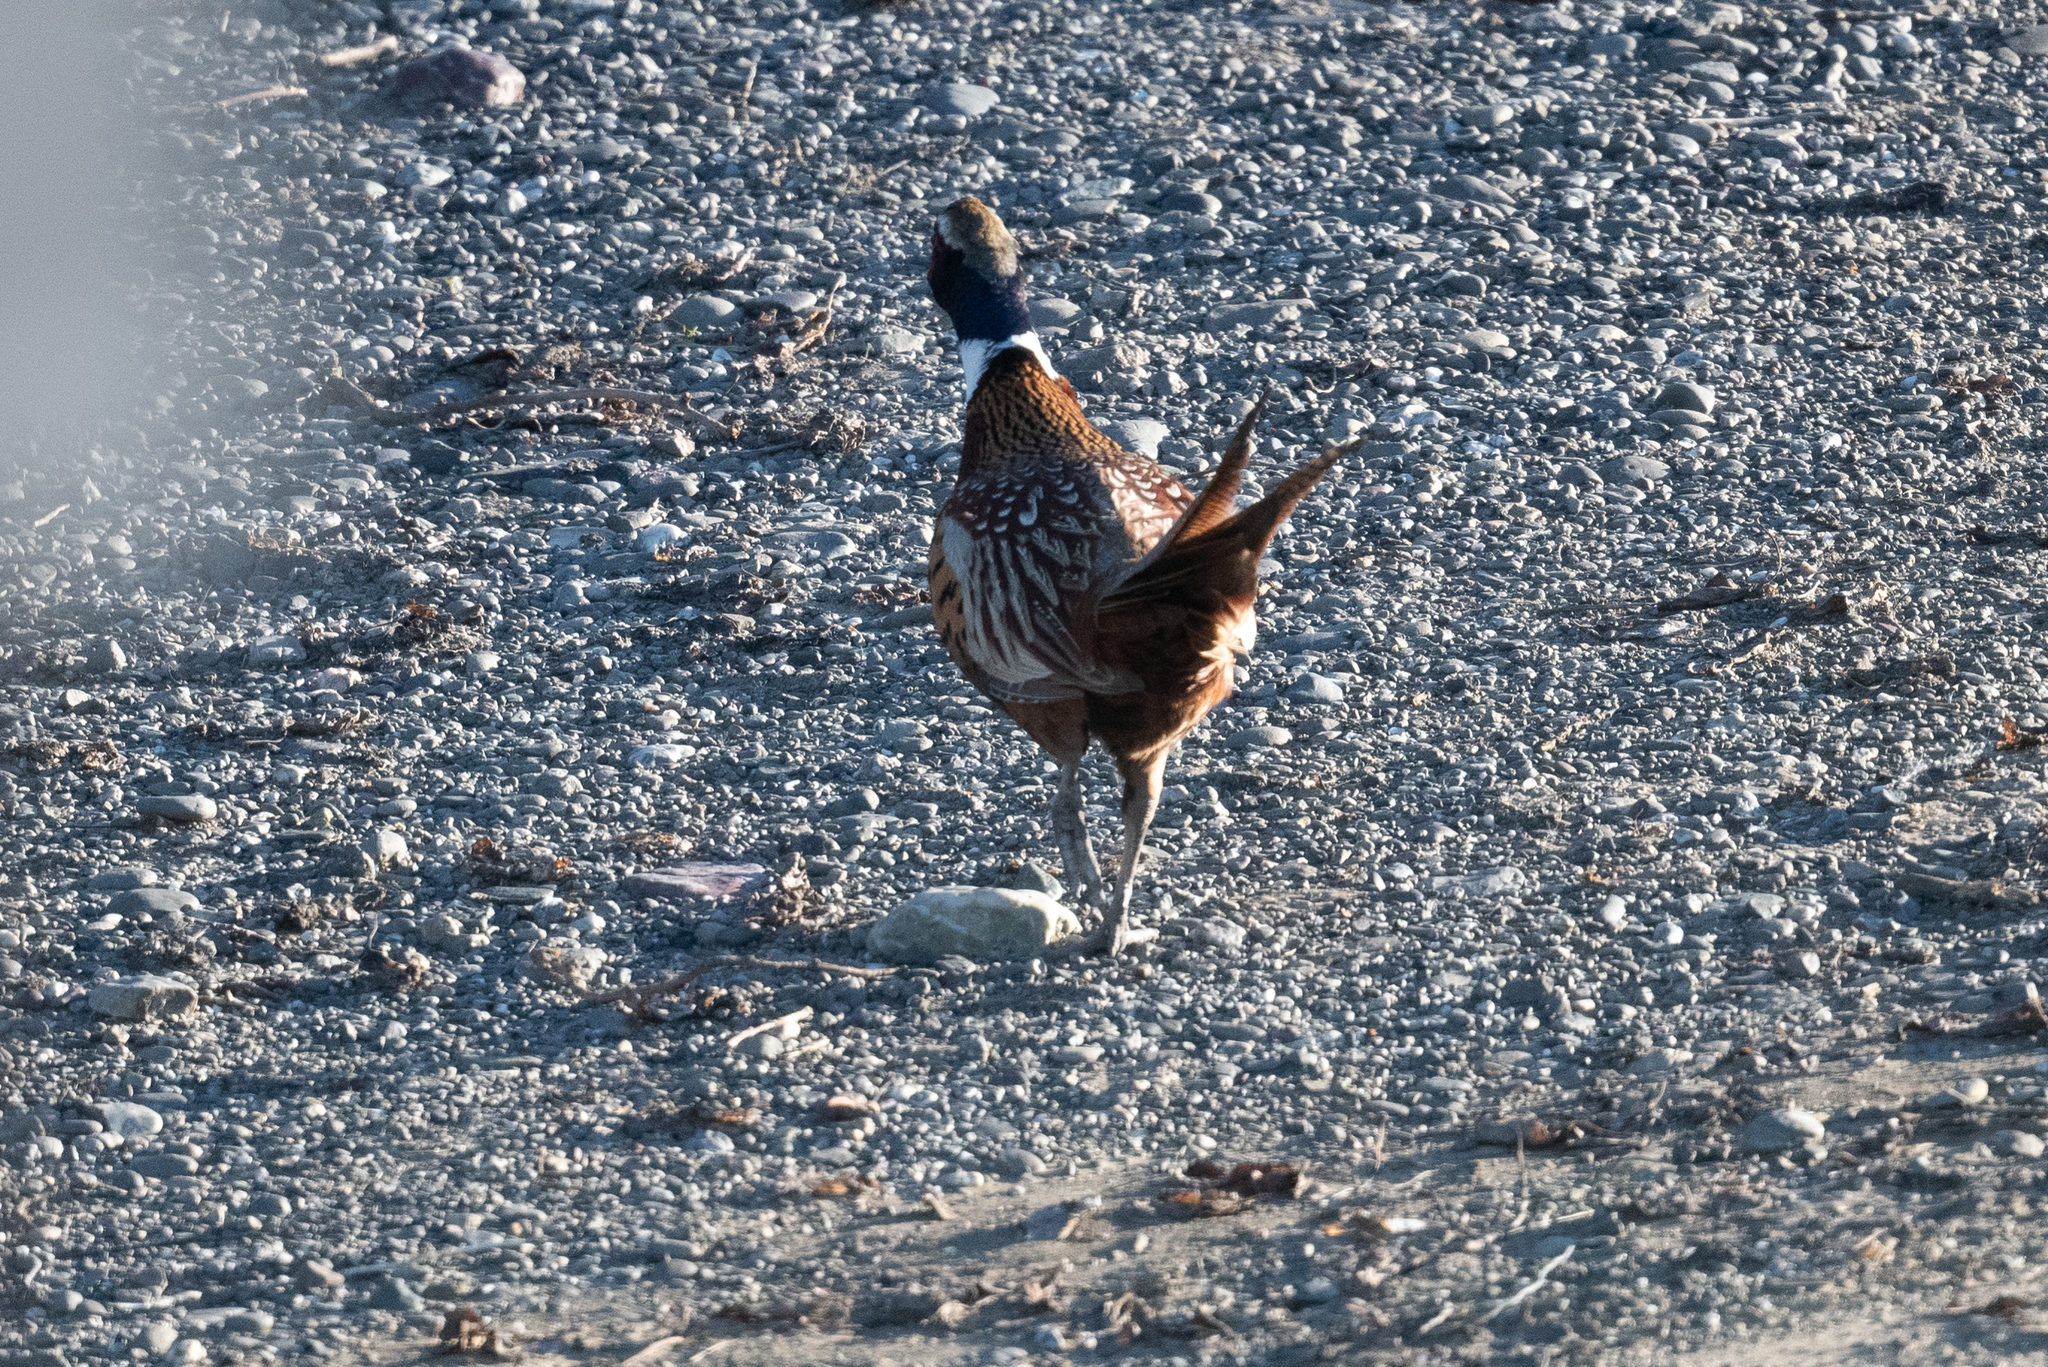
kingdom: Animalia
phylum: Chordata
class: Aves
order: Galliformes
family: Phasianidae
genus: Phasianus
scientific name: Phasianus colchicus
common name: Common pheasant
